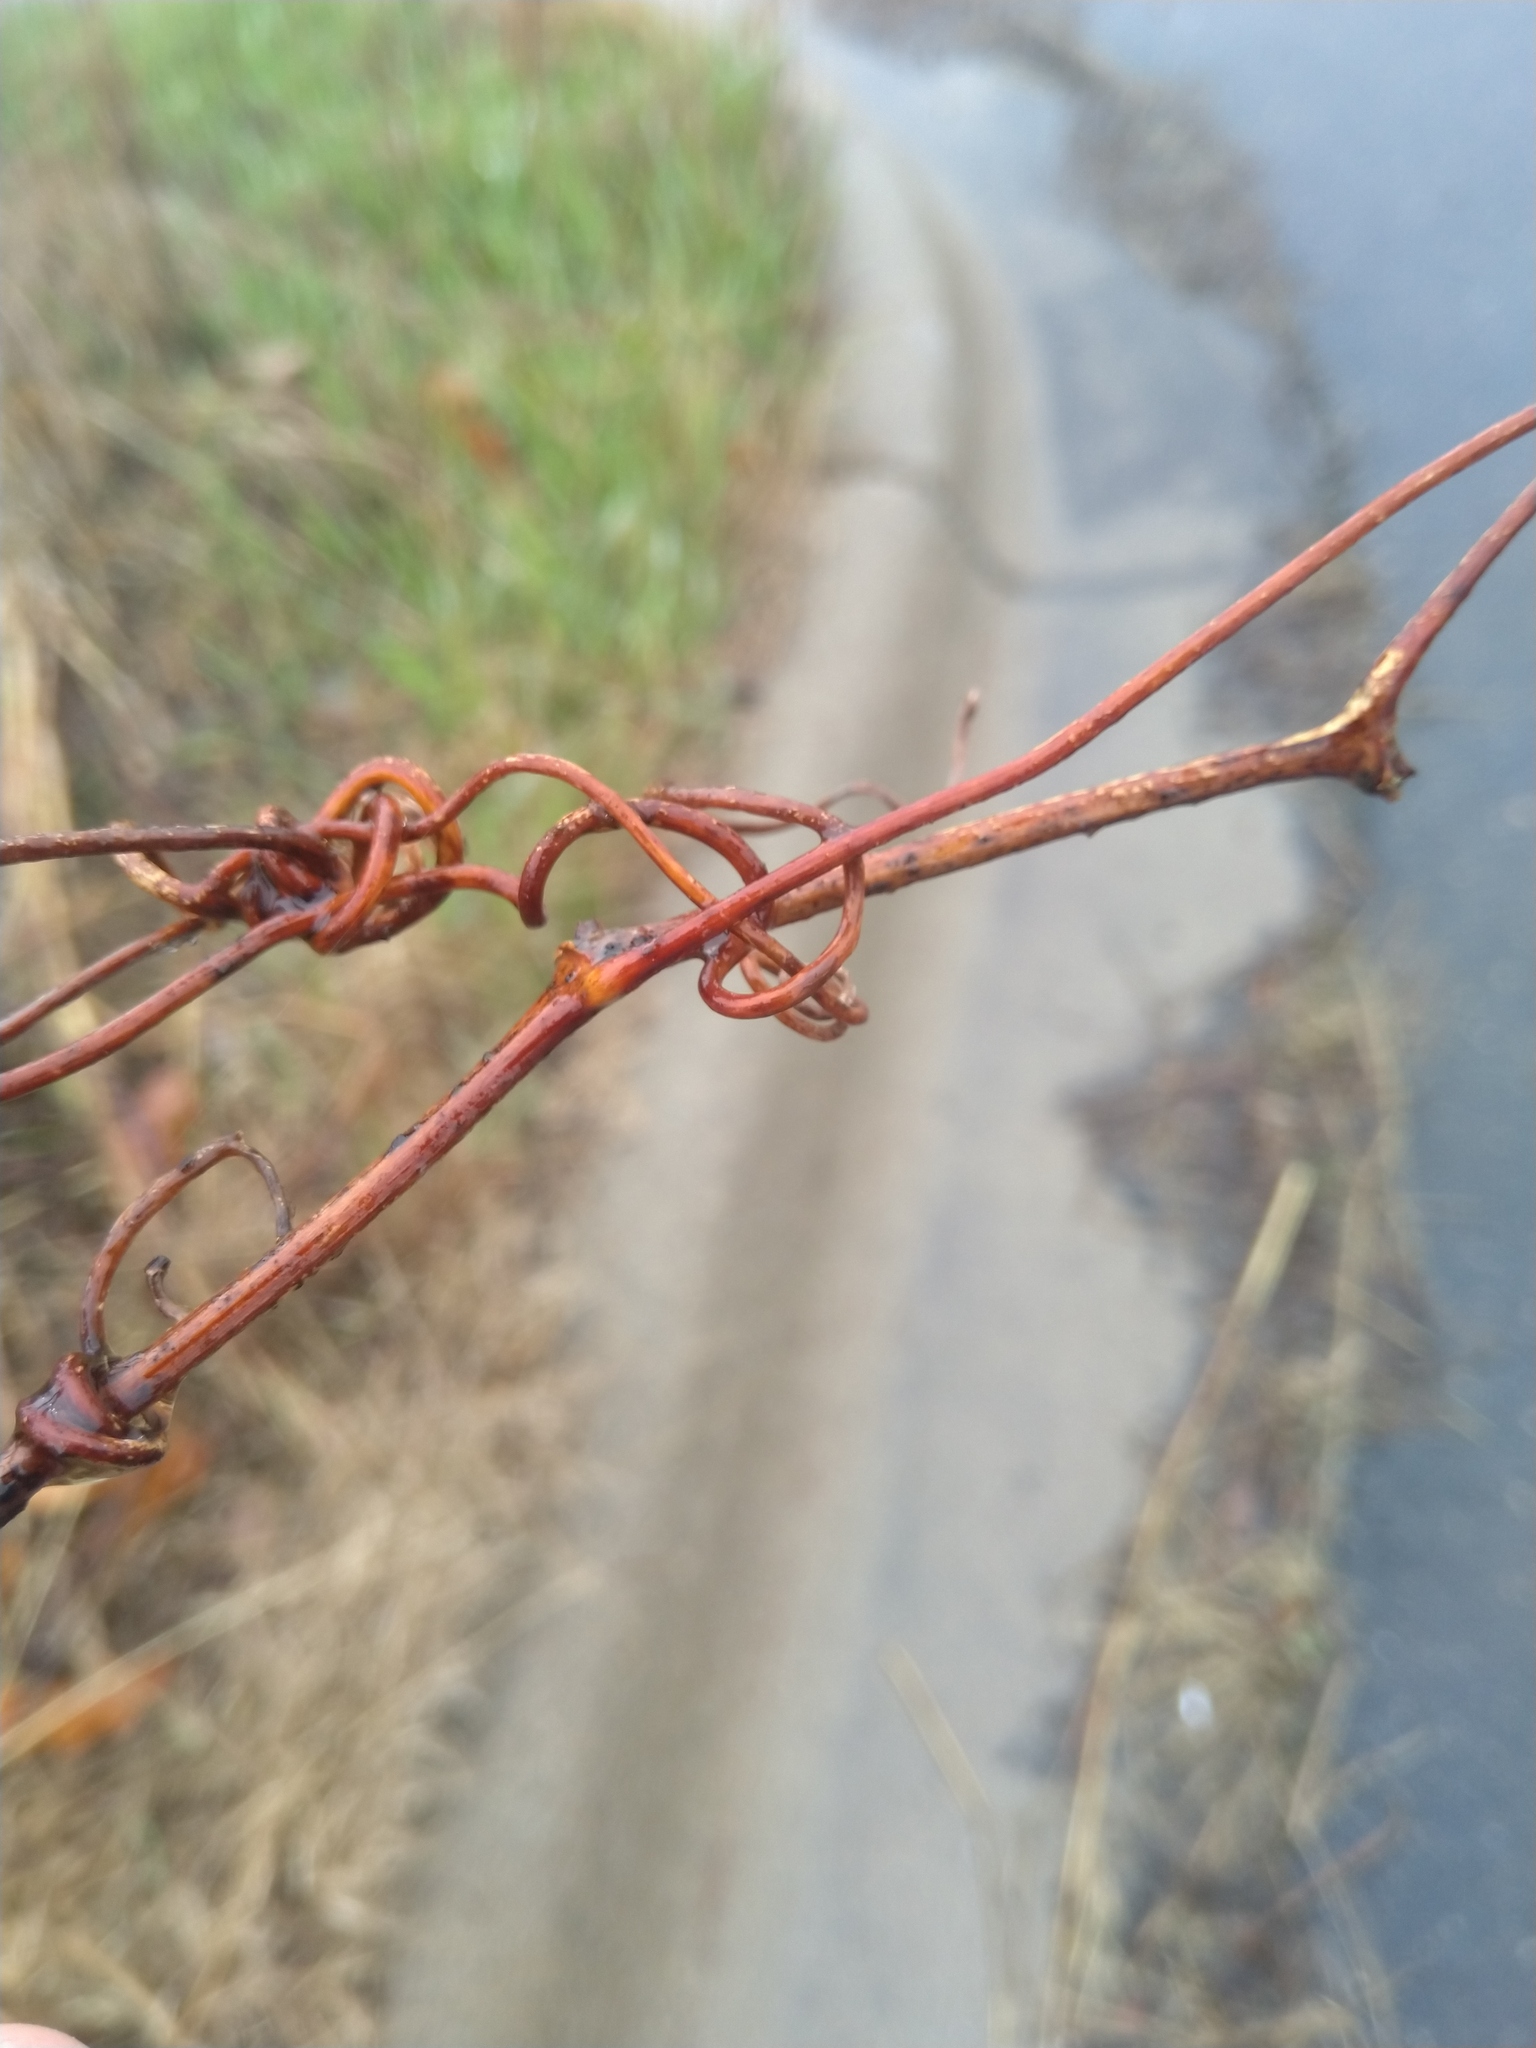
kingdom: Plantae
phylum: Tracheophyta
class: Magnoliopsida
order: Vitales
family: Vitaceae
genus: Vitis
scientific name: Vitis riparia
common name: Frost grape
